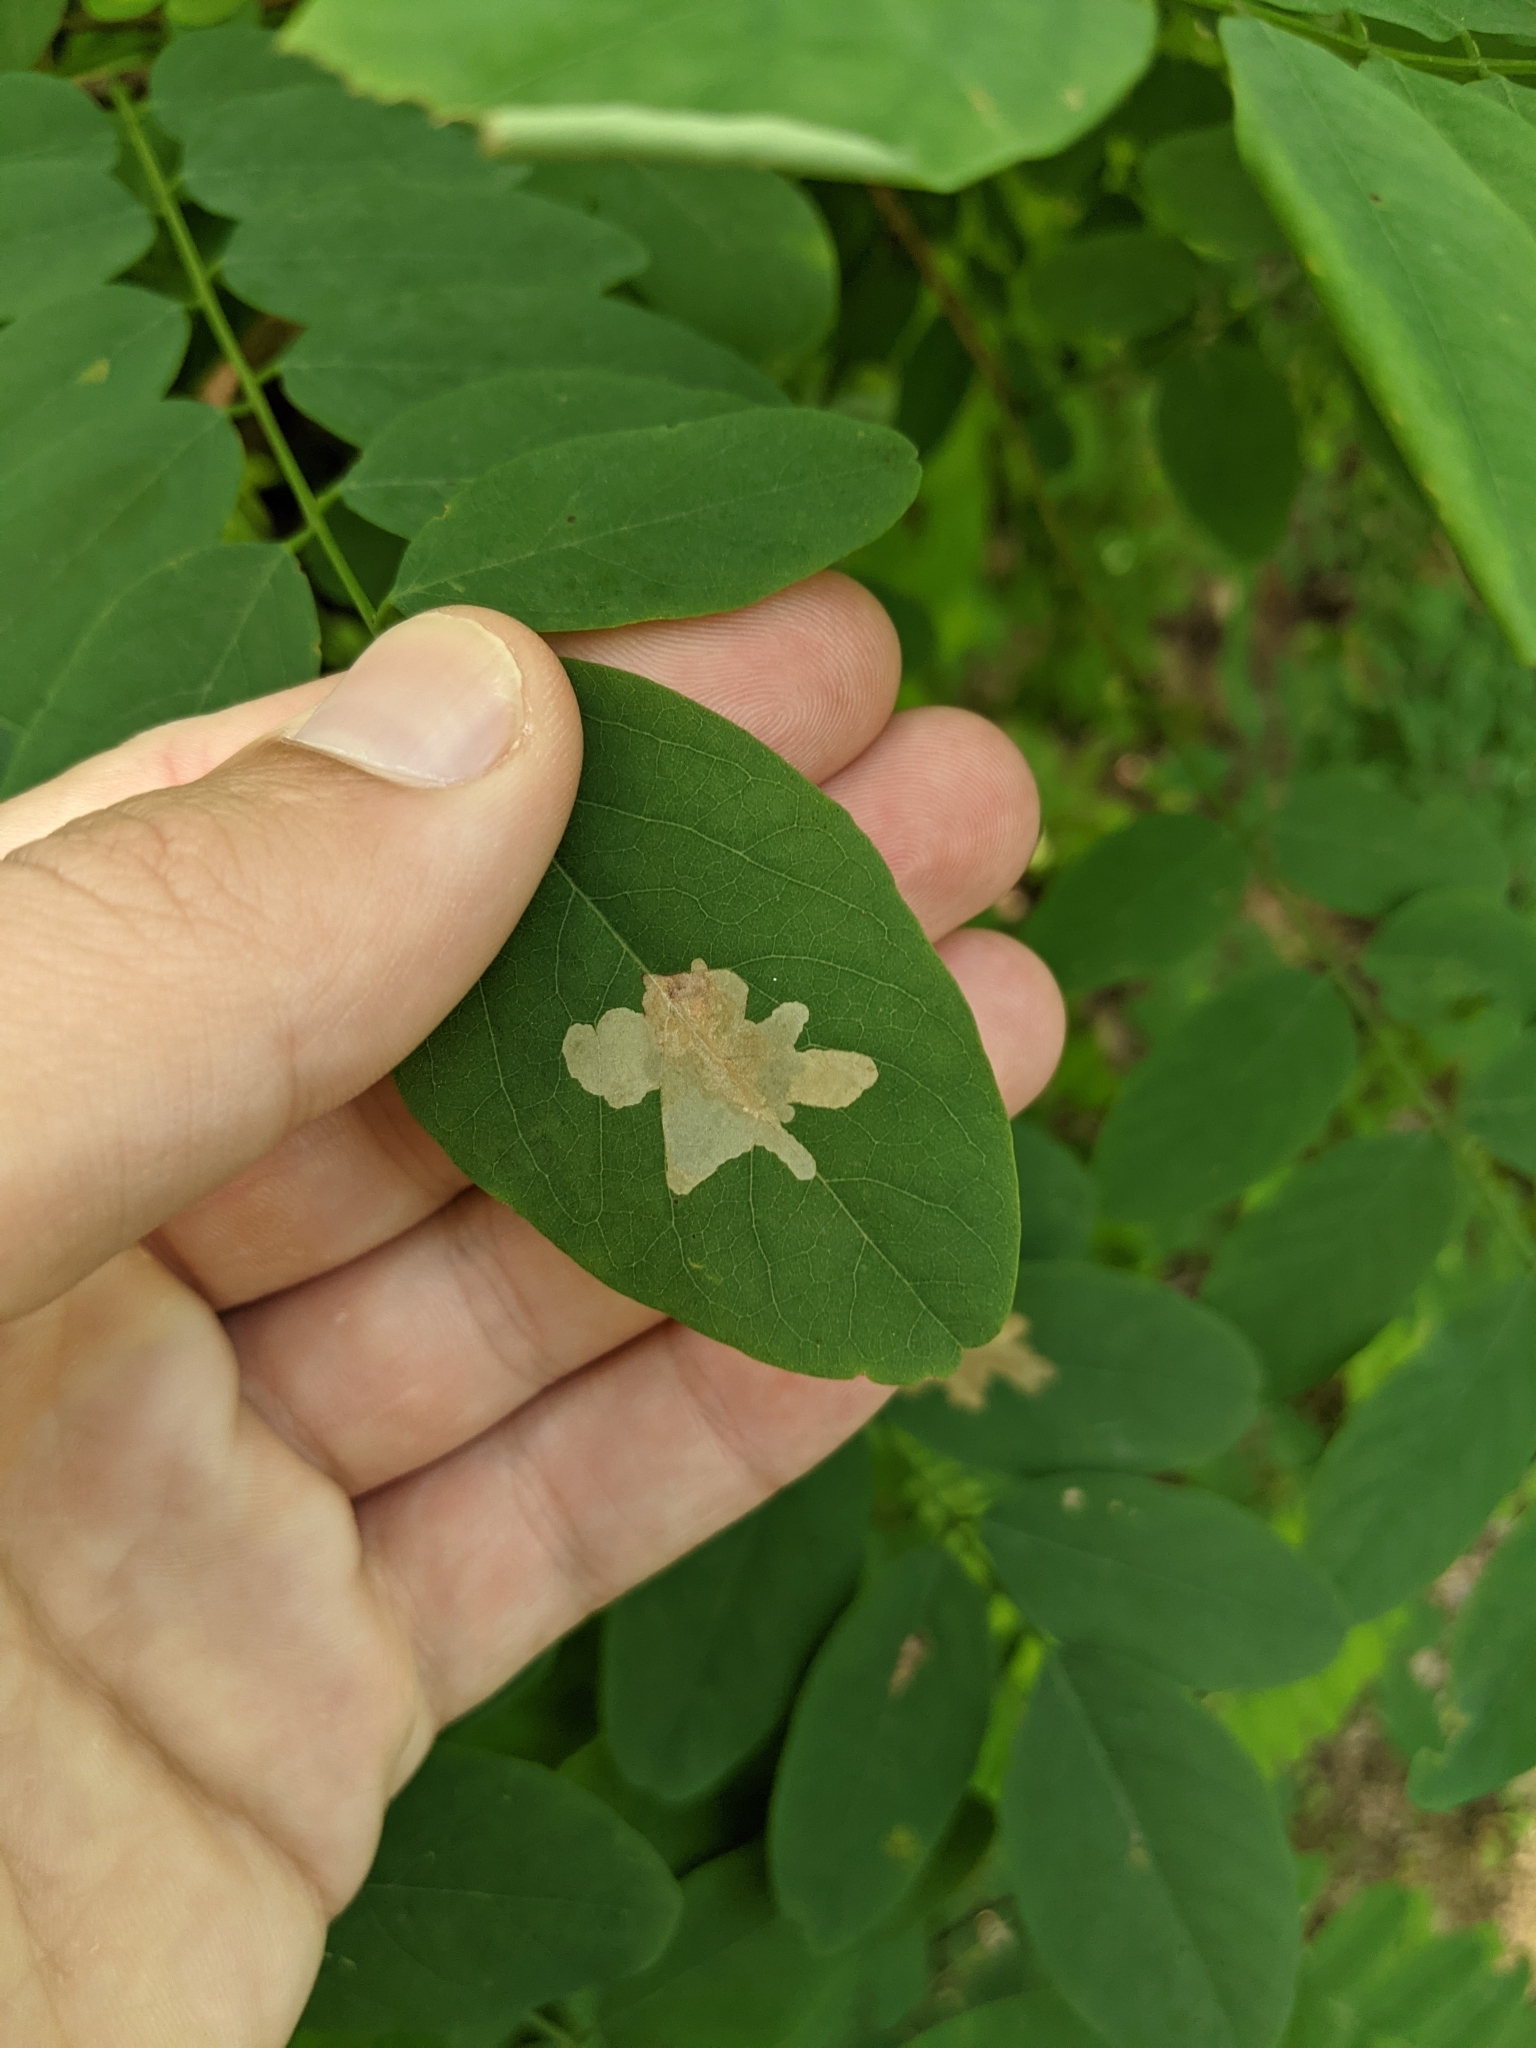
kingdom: Plantae
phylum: Tracheophyta
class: Magnoliopsida
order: Fabales
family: Fabaceae
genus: Robinia
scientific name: Robinia pseudoacacia
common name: Black locust
